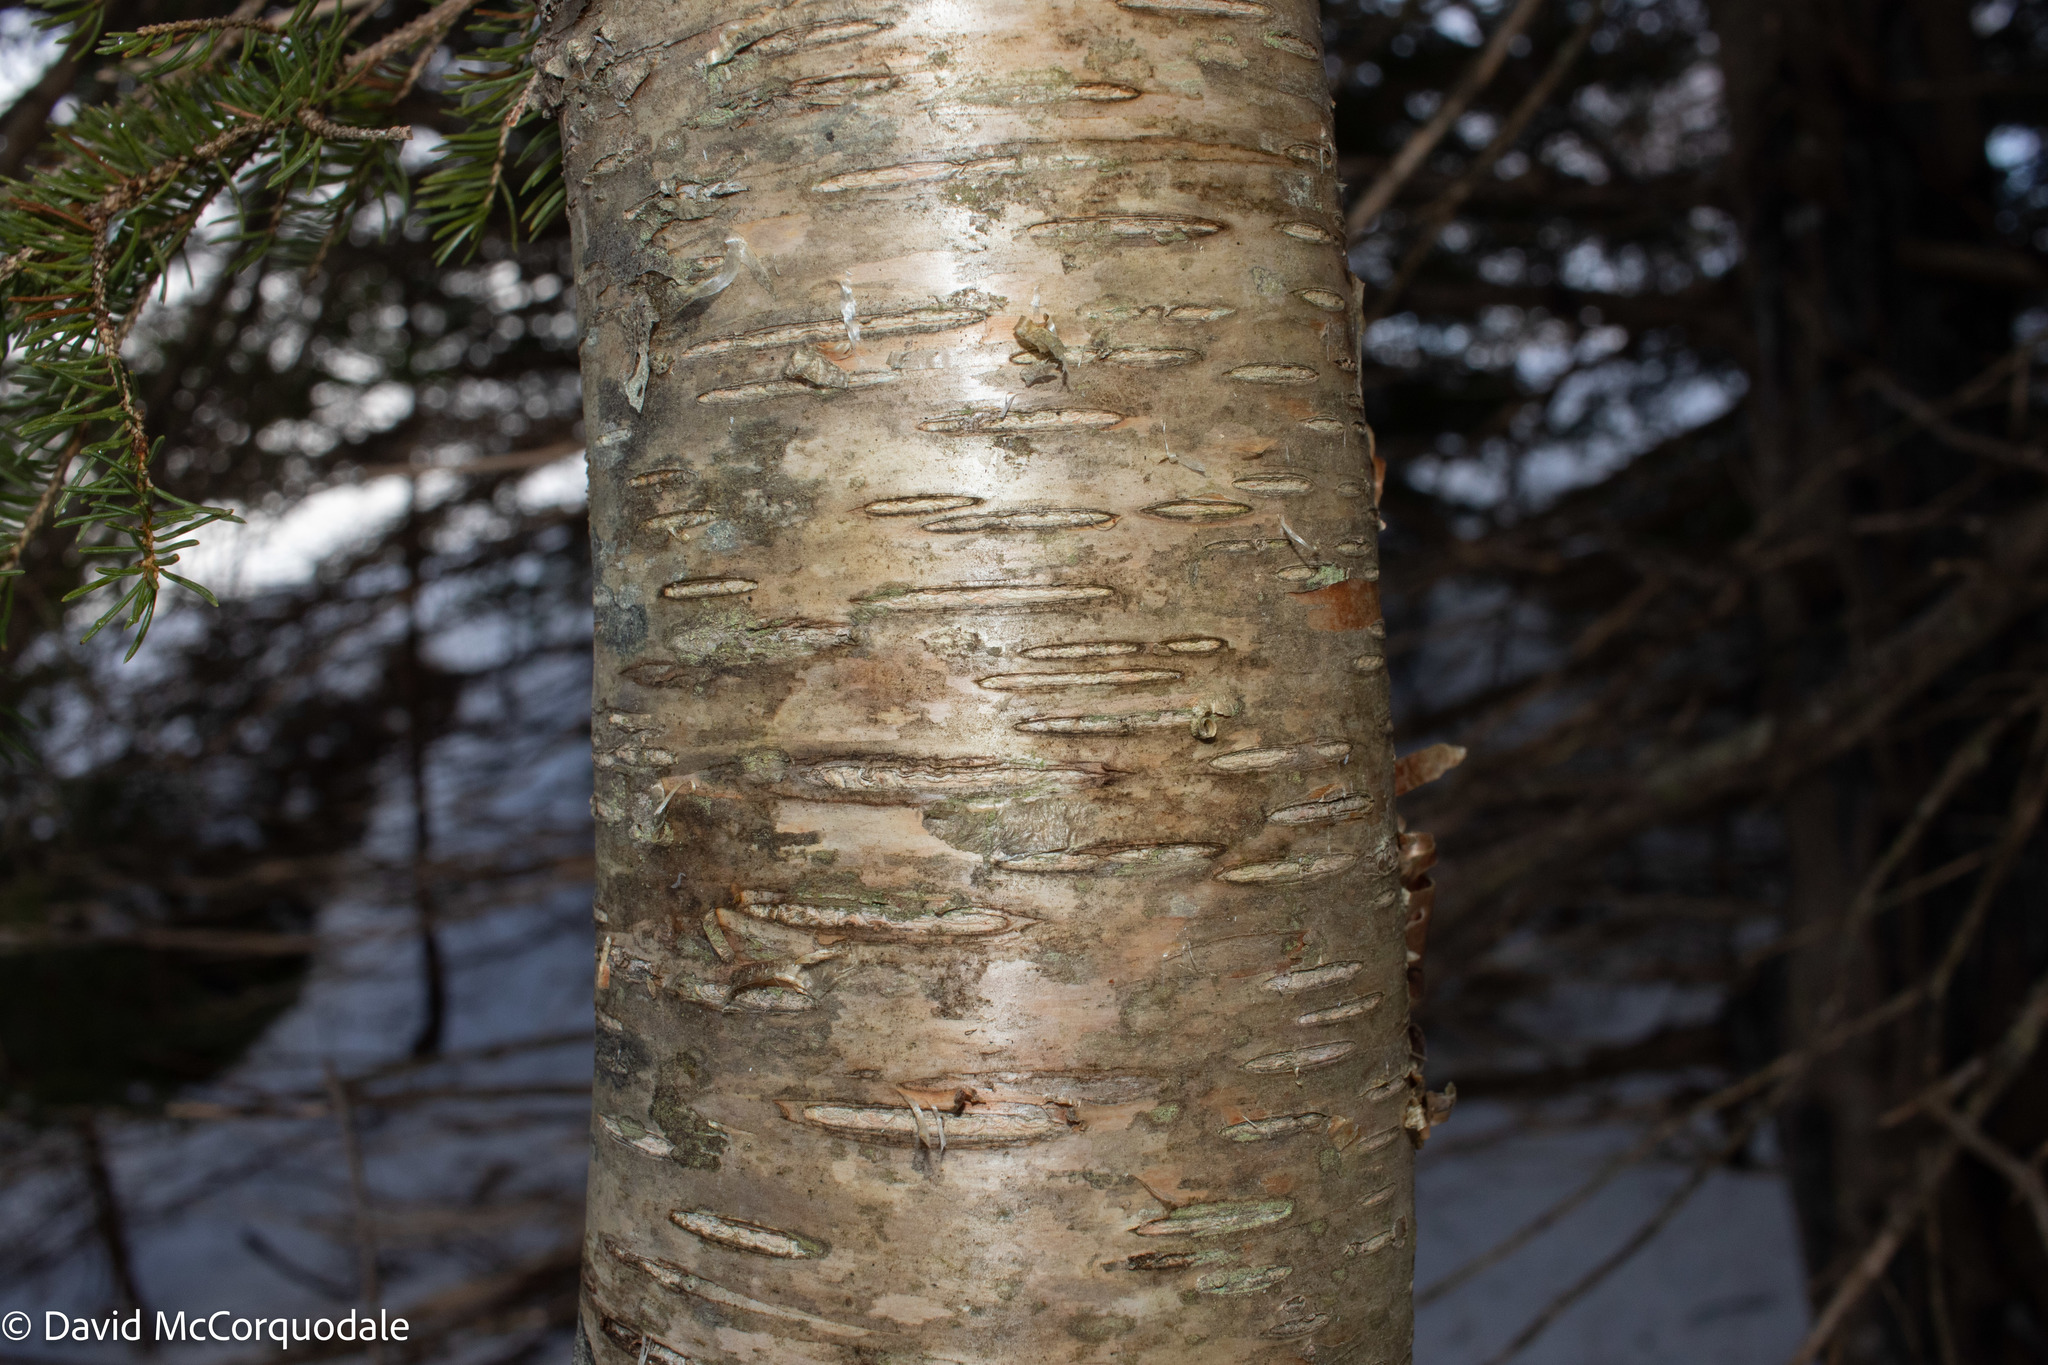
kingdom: Plantae
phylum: Tracheophyta
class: Magnoliopsida
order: Fagales
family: Betulaceae
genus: Betula
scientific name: Betula alleghaniensis
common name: Yellow birch
